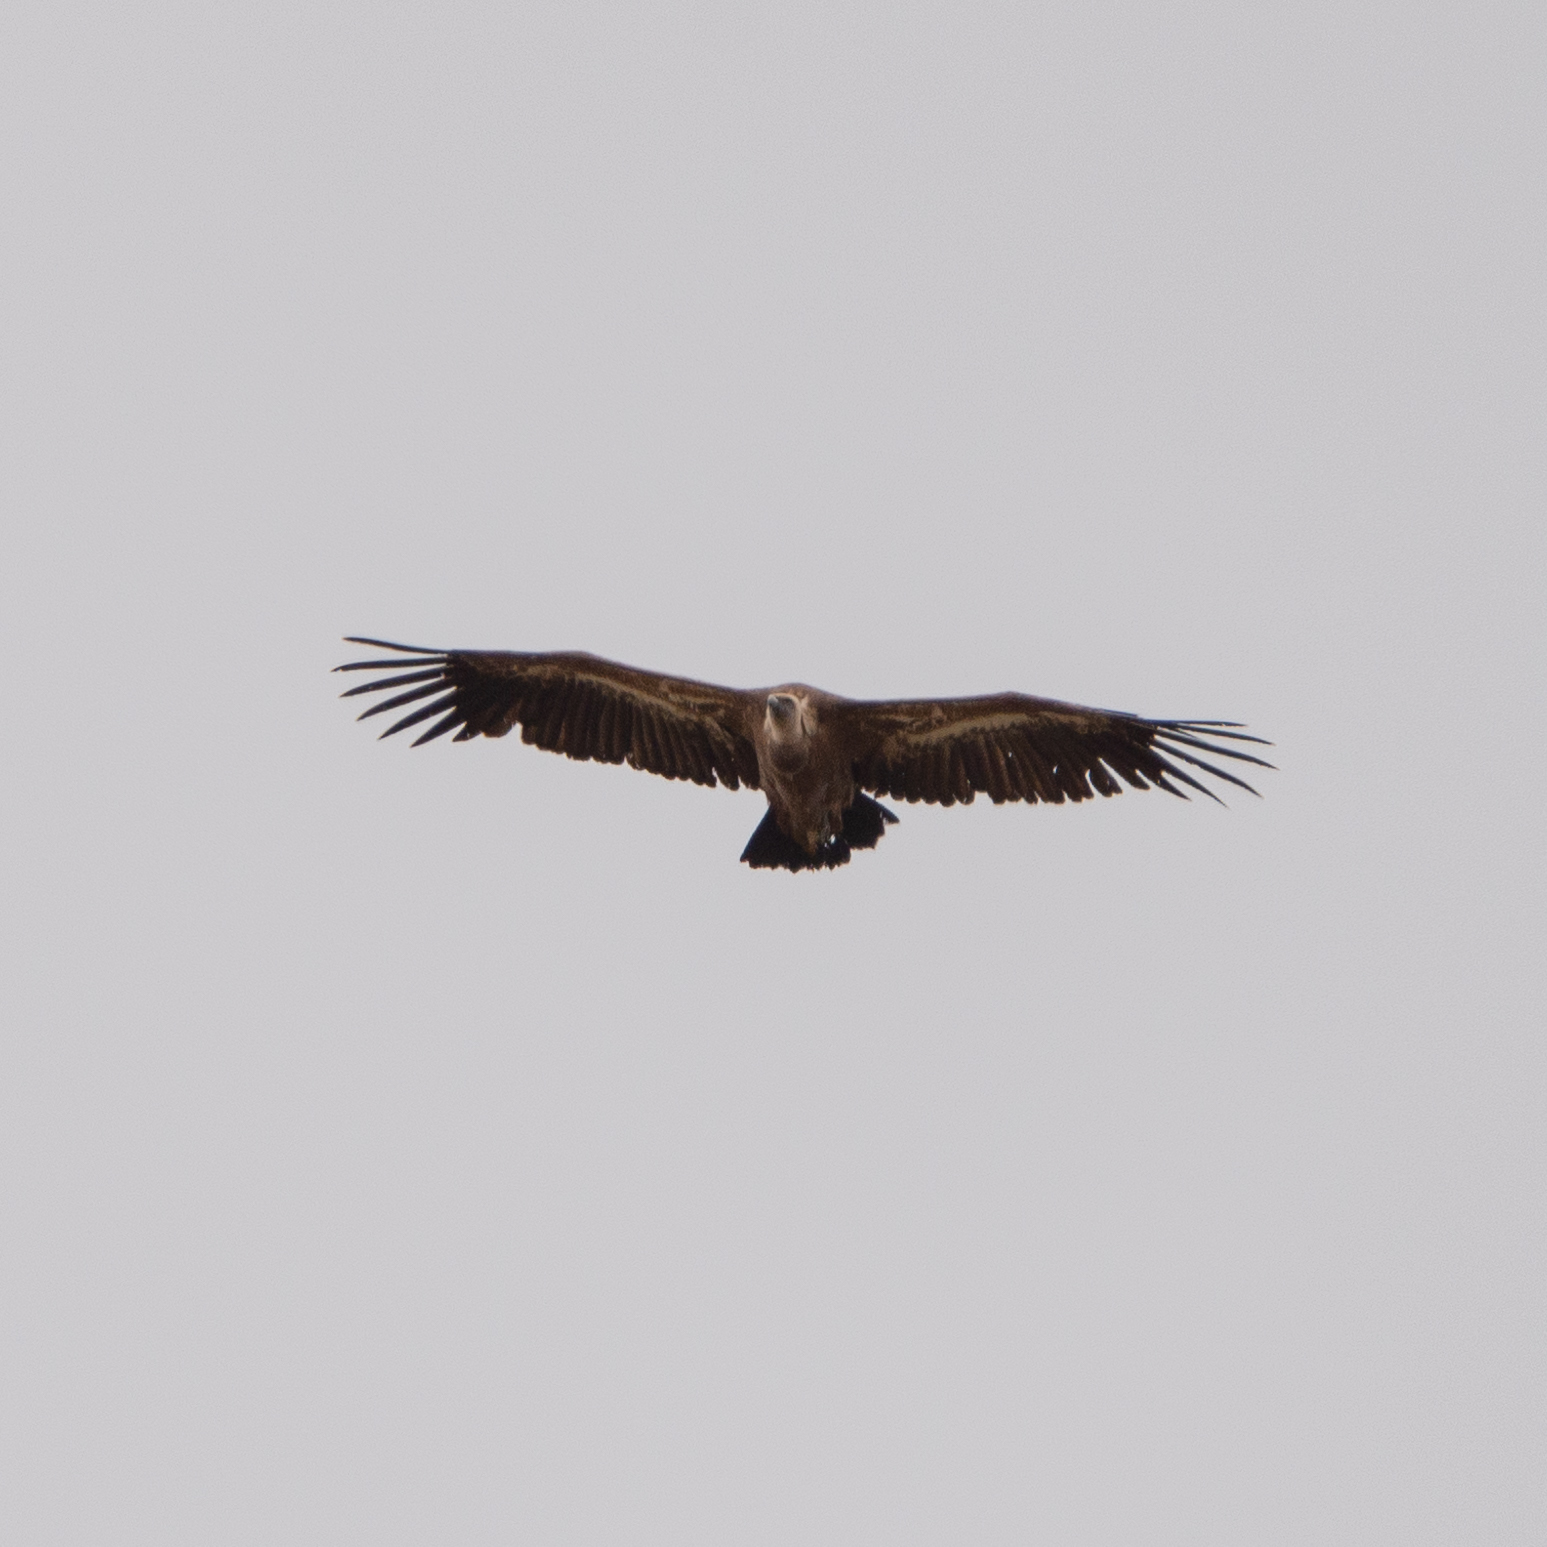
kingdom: Animalia
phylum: Chordata
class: Aves
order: Accipitriformes
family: Accipitridae
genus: Gyps
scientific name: Gyps fulvus
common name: Griffon vulture
